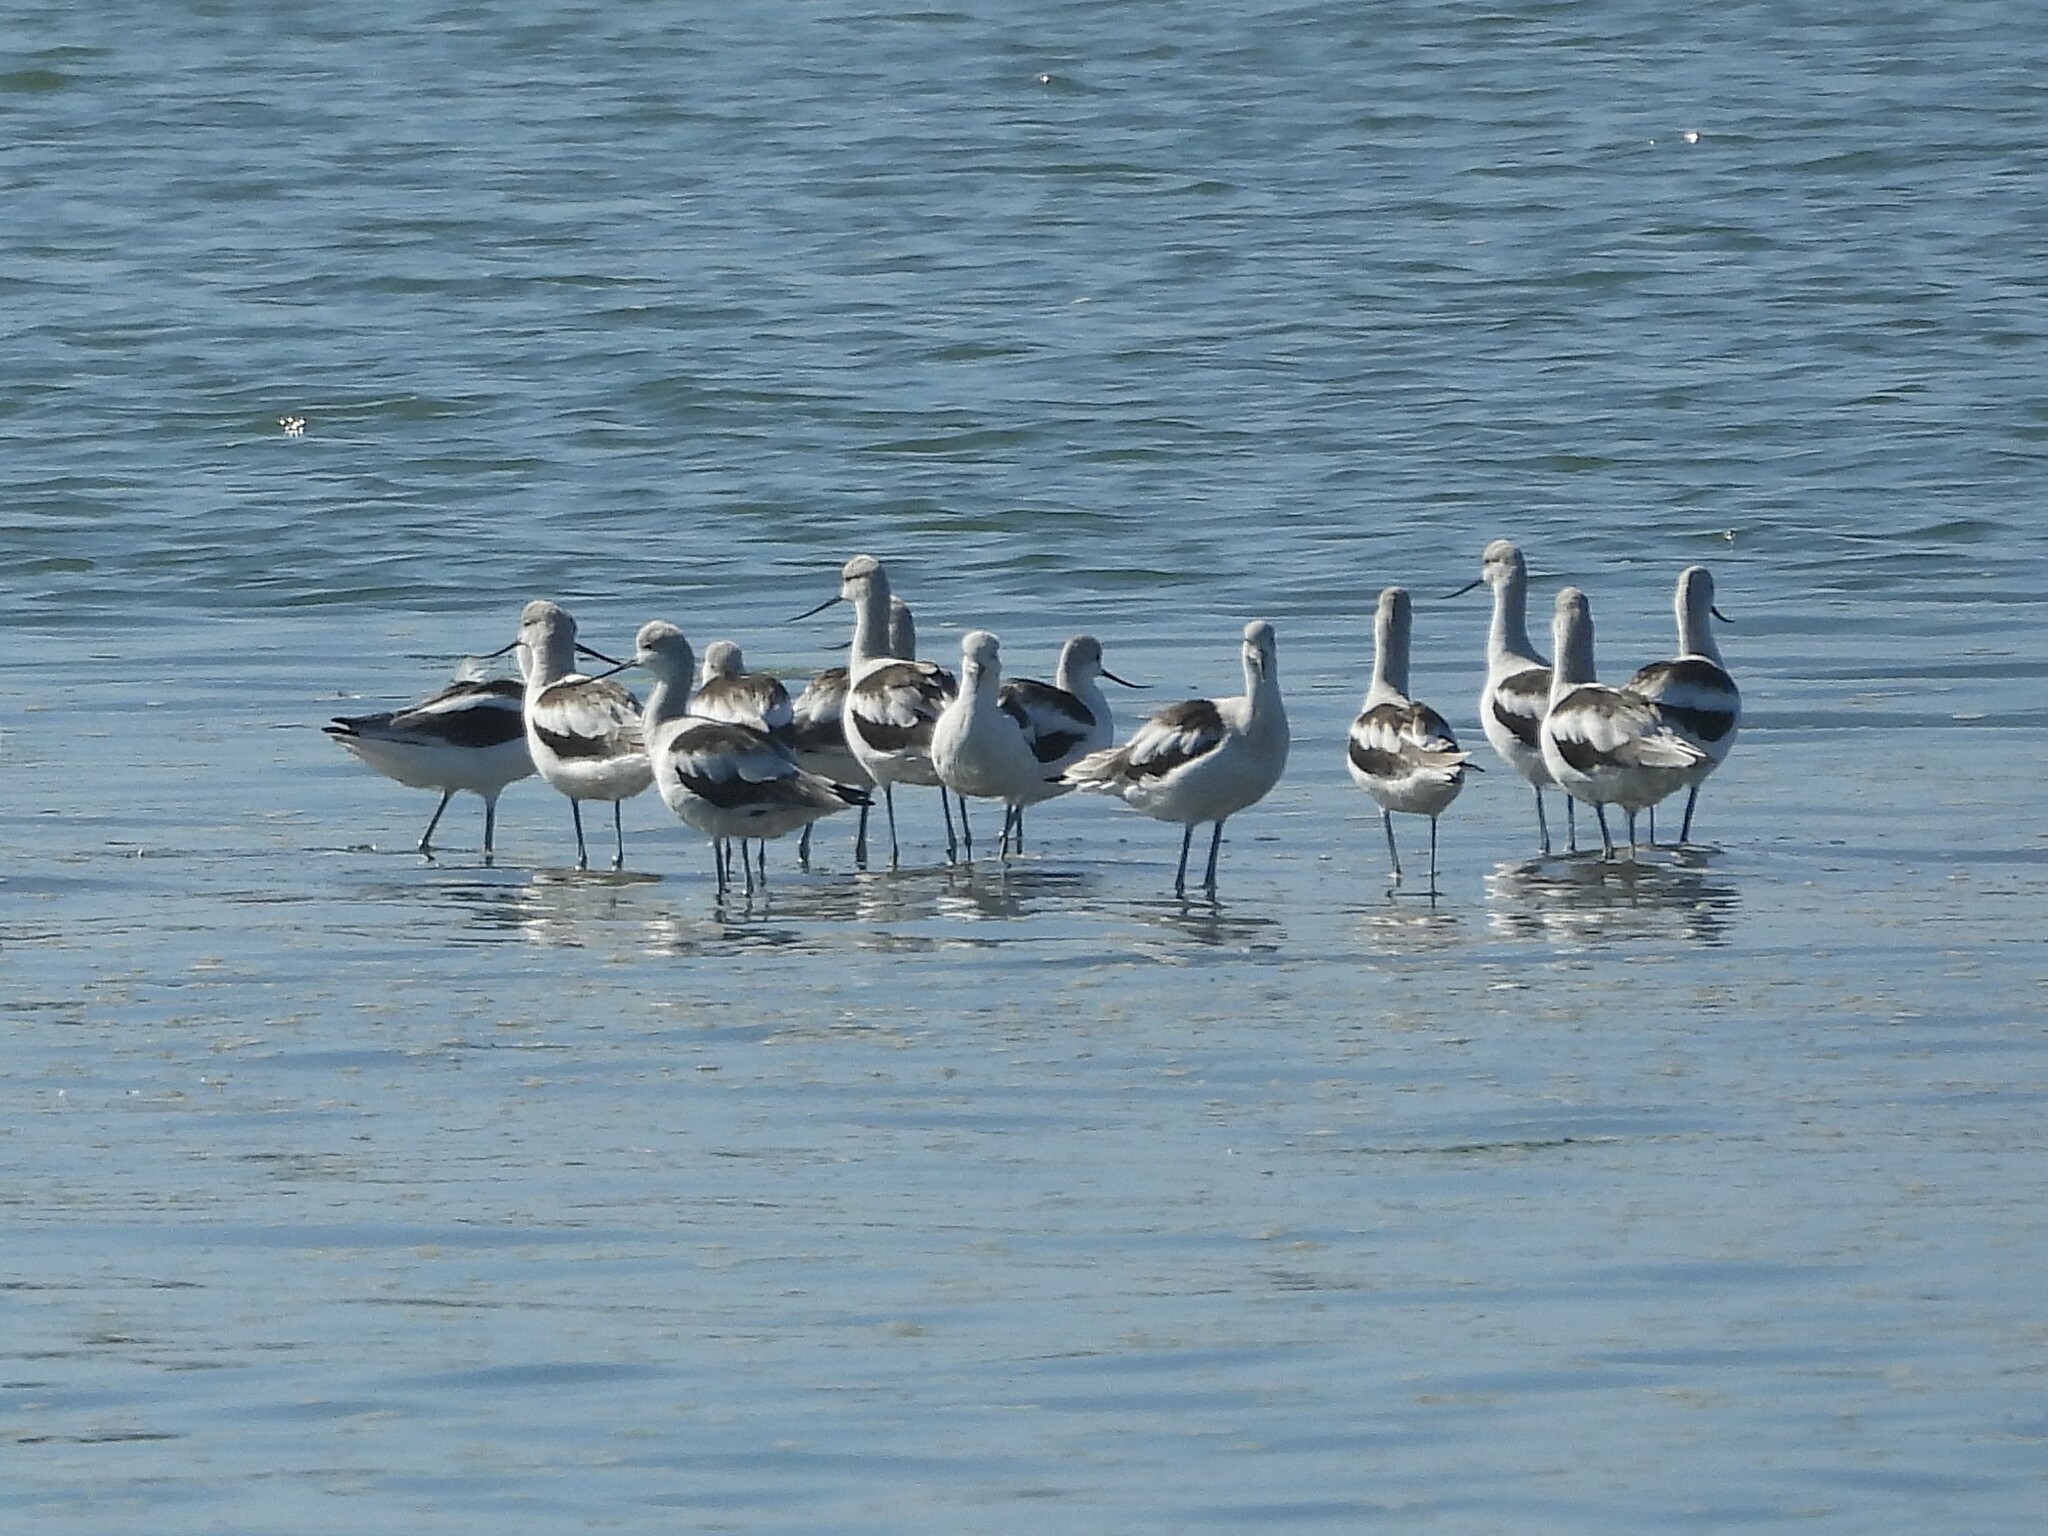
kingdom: Animalia
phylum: Chordata
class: Aves
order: Charadriiformes
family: Recurvirostridae
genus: Recurvirostra
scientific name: Recurvirostra americana
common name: American avocet
